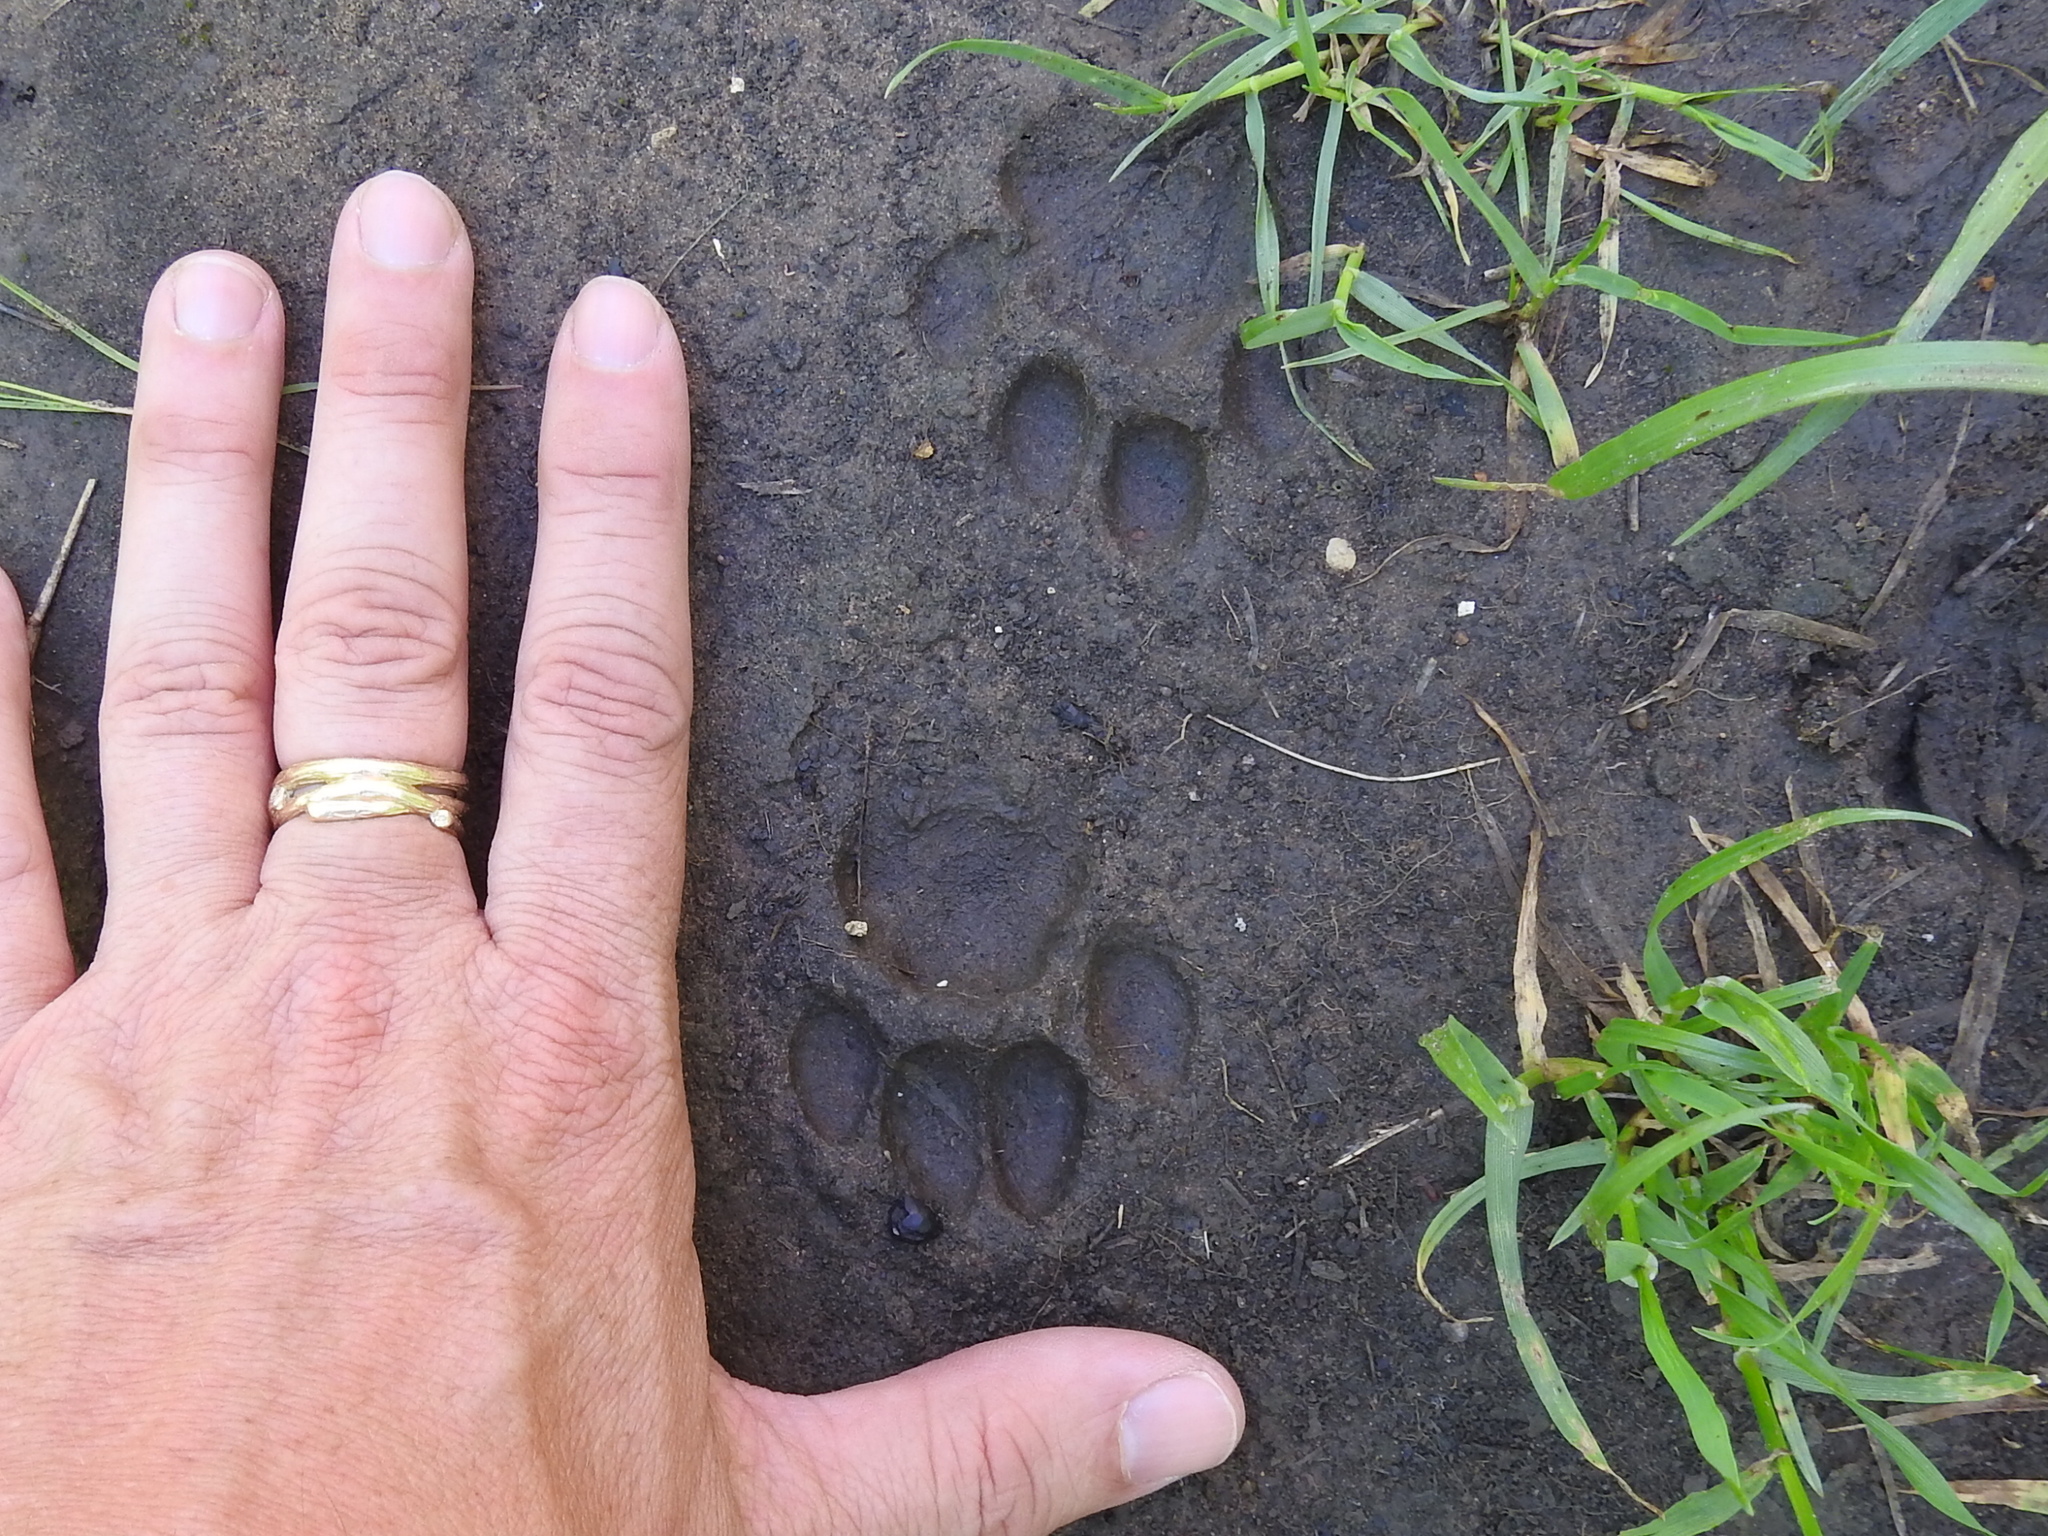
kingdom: Animalia
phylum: Chordata
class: Mammalia
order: Carnivora
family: Felidae
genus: Lynx
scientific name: Lynx rufus
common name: Bobcat
